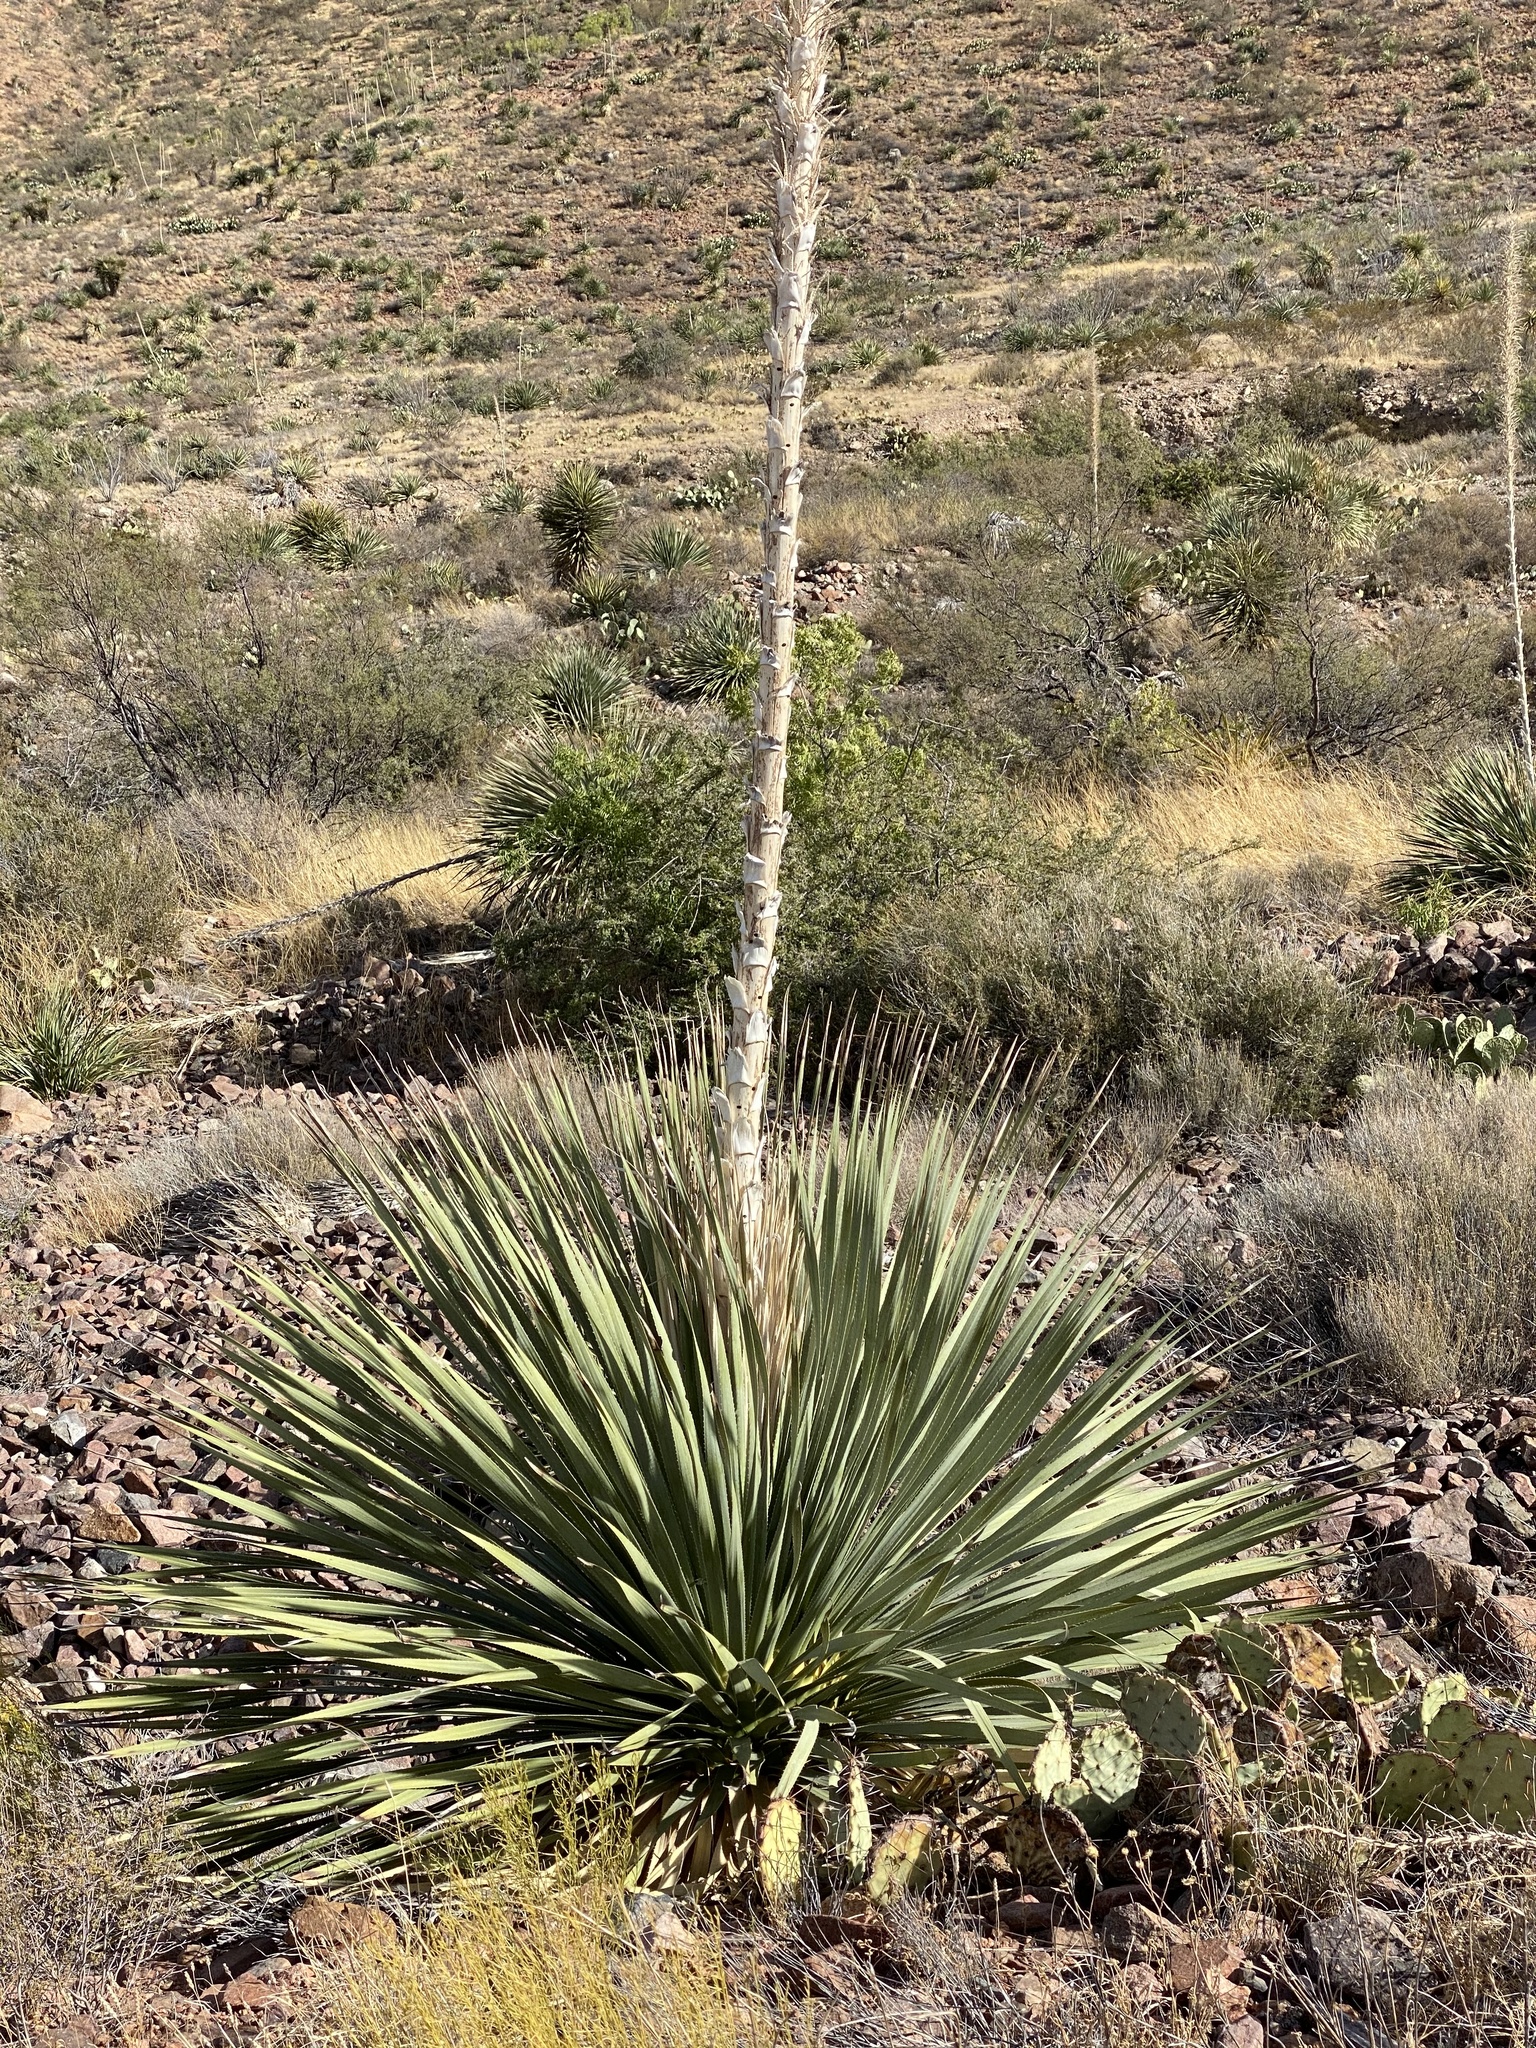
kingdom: Plantae
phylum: Tracheophyta
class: Liliopsida
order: Asparagales
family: Asparagaceae
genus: Dasylirion
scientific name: Dasylirion wheeleri
